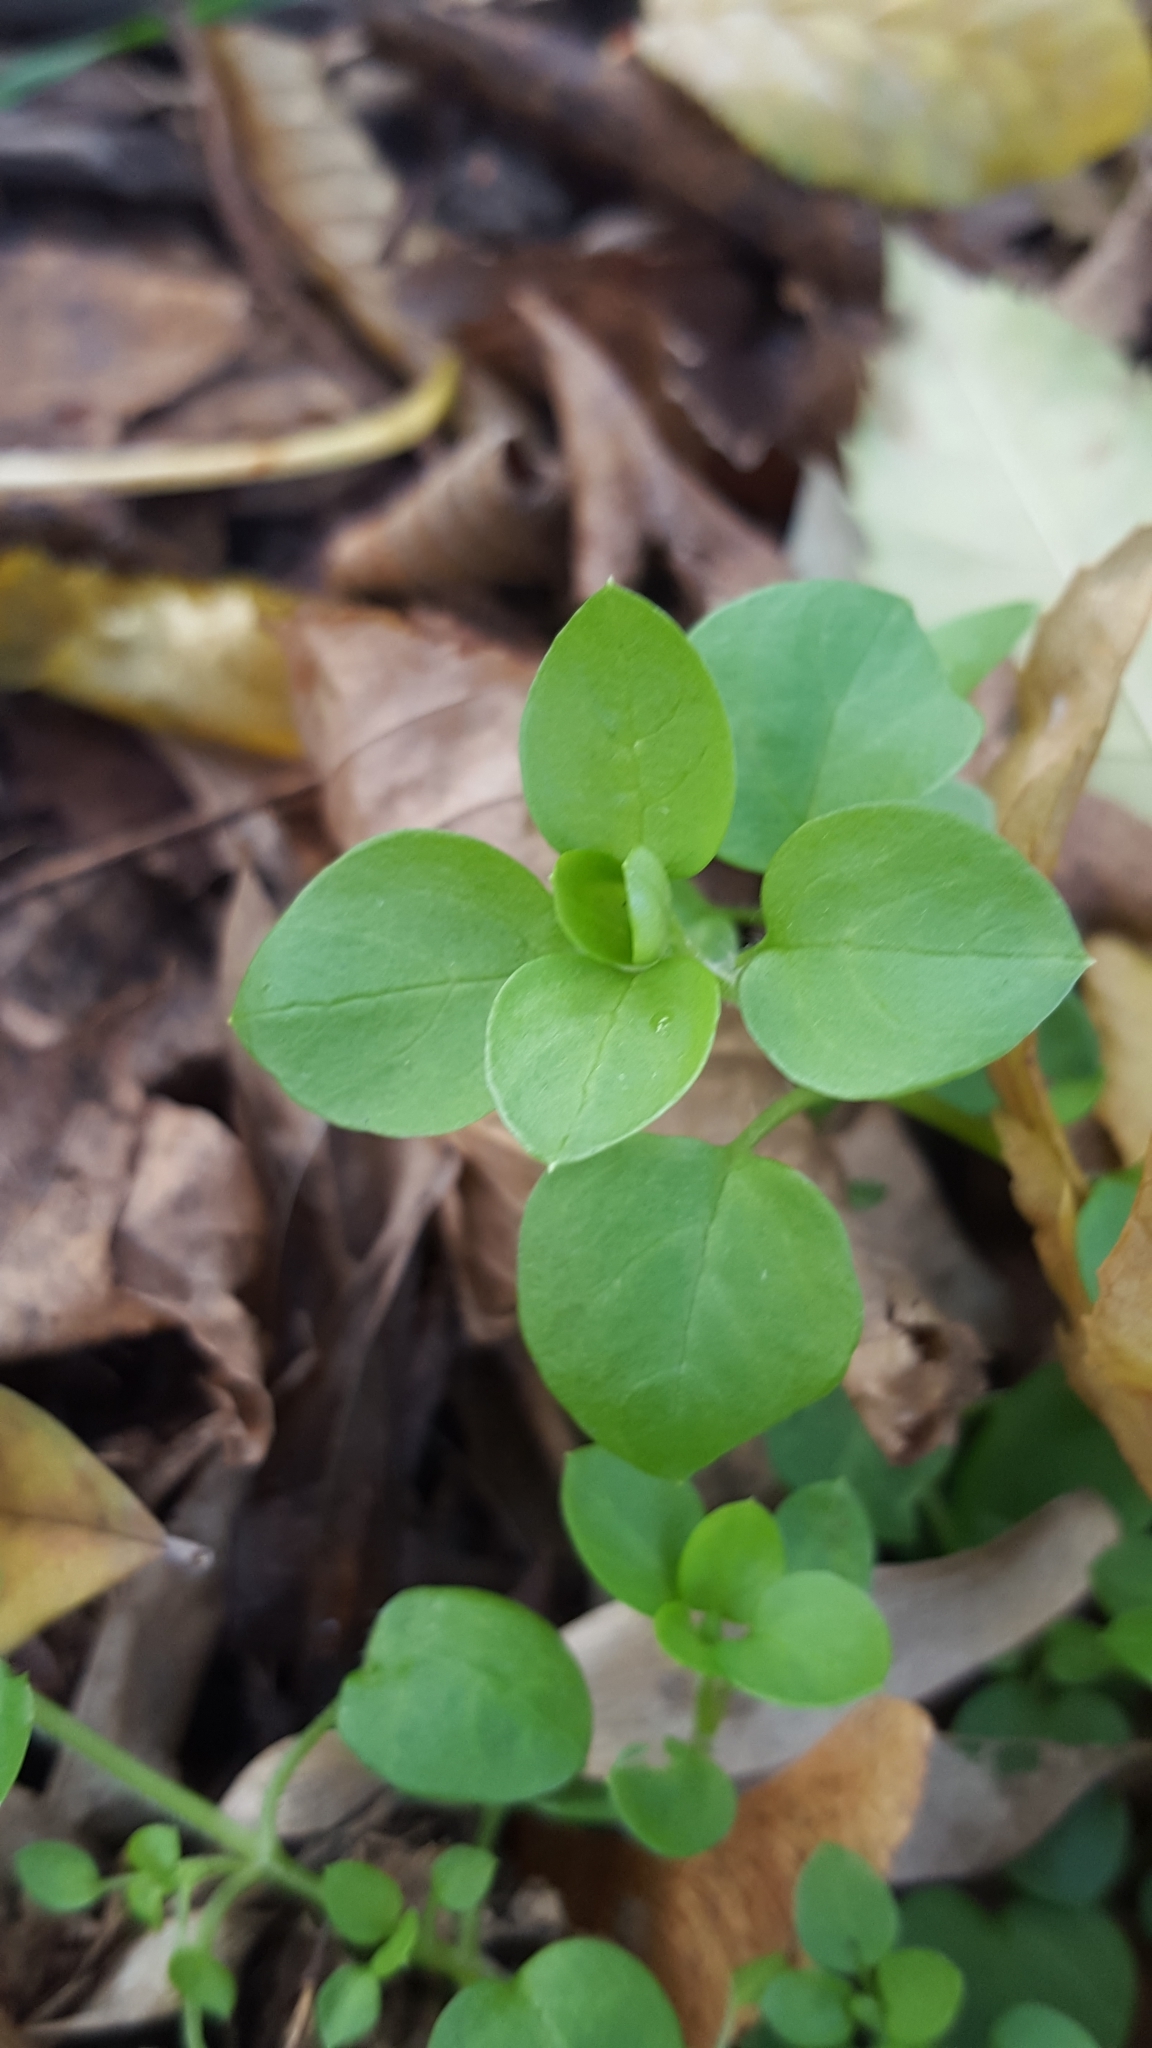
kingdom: Plantae
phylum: Tracheophyta
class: Magnoliopsida
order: Caryophyllales
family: Caryophyllaceae
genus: Stellaria
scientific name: Stellaria media
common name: Common chickweed
